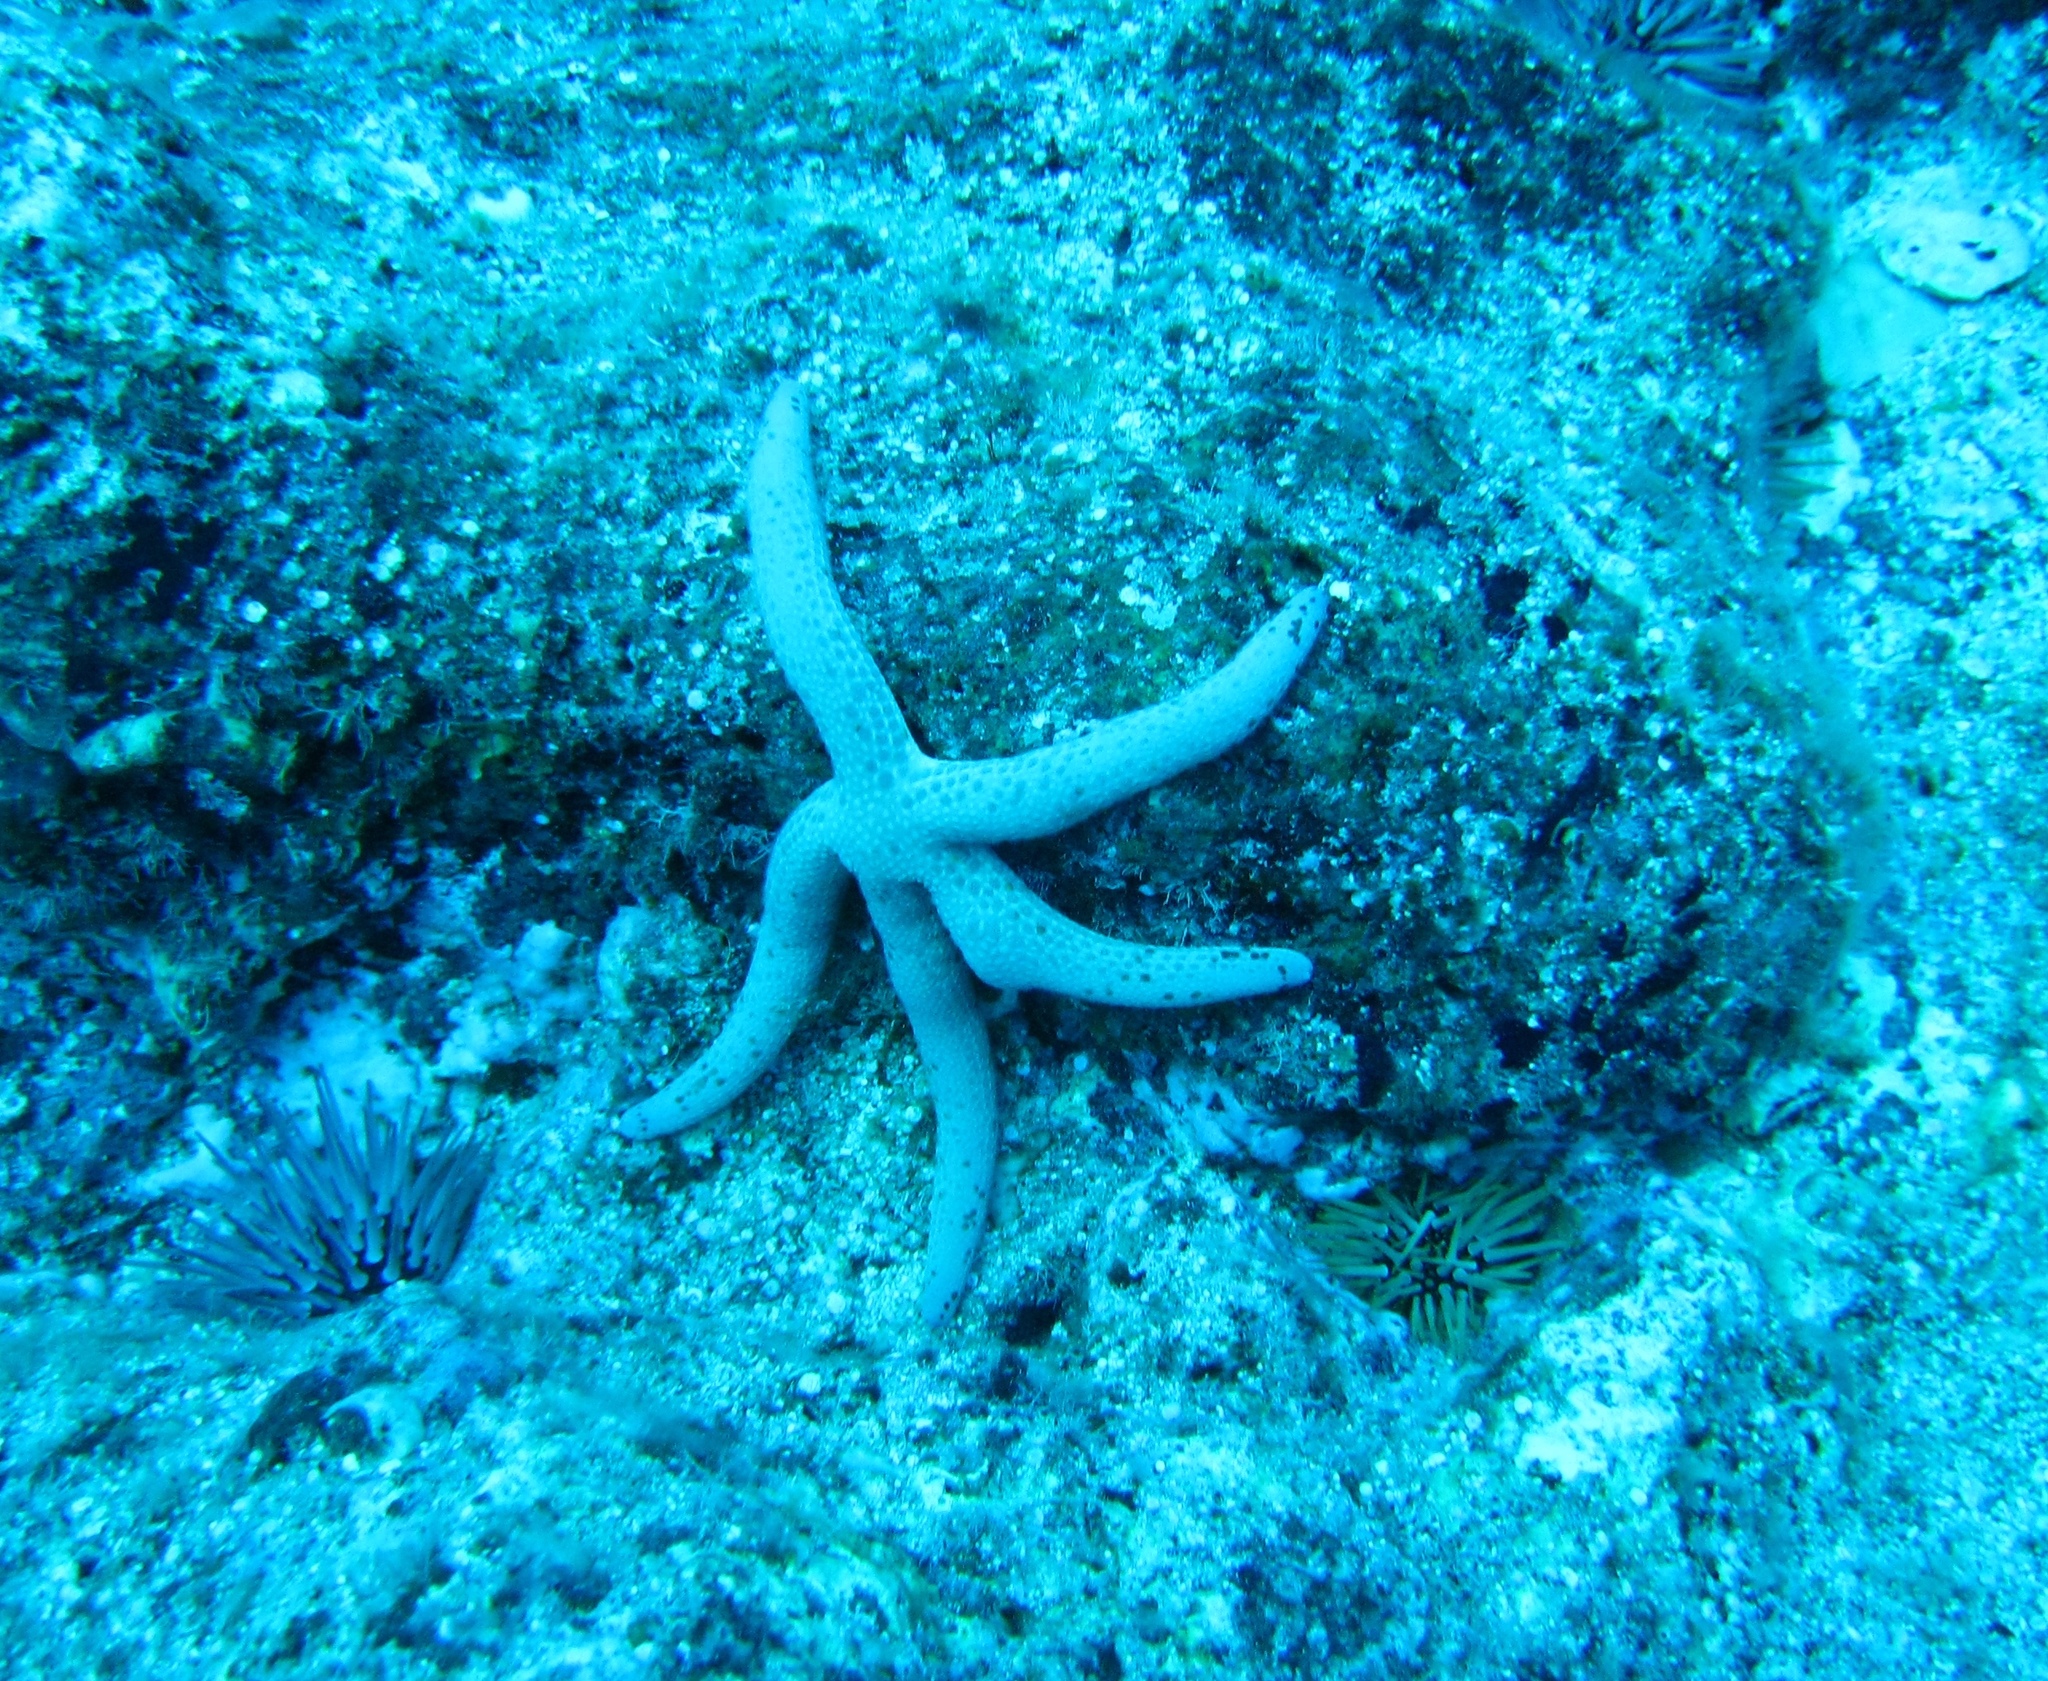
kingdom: Animalia
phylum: Echinodermata
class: Asteroidea
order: Valvatida
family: Ophidiasteridae
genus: Linckia
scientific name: Linckia multifora
